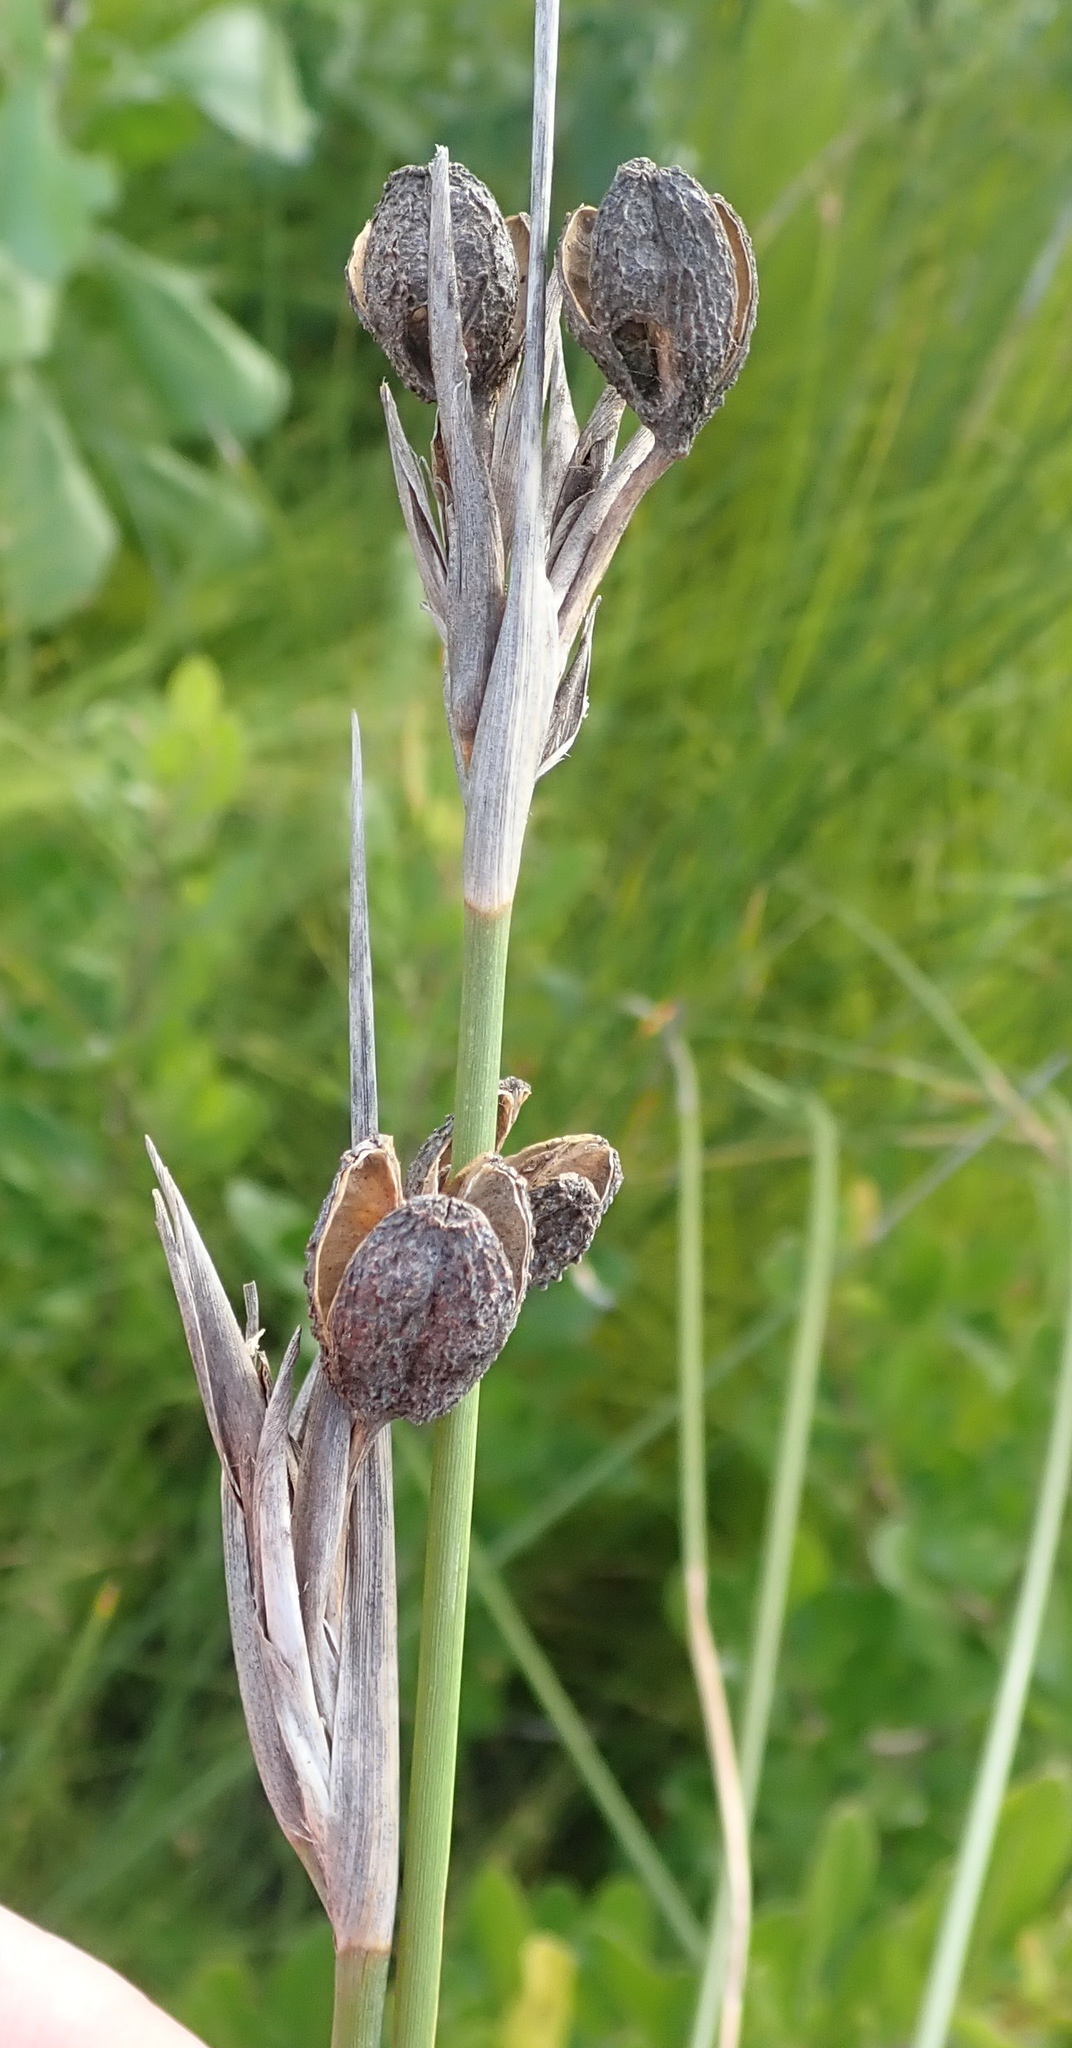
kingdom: Plantae
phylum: Tracheophyta
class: Liliopsida
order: Asparagales
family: Iridaceae
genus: Bobartia
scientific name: Bobartia aphylla
